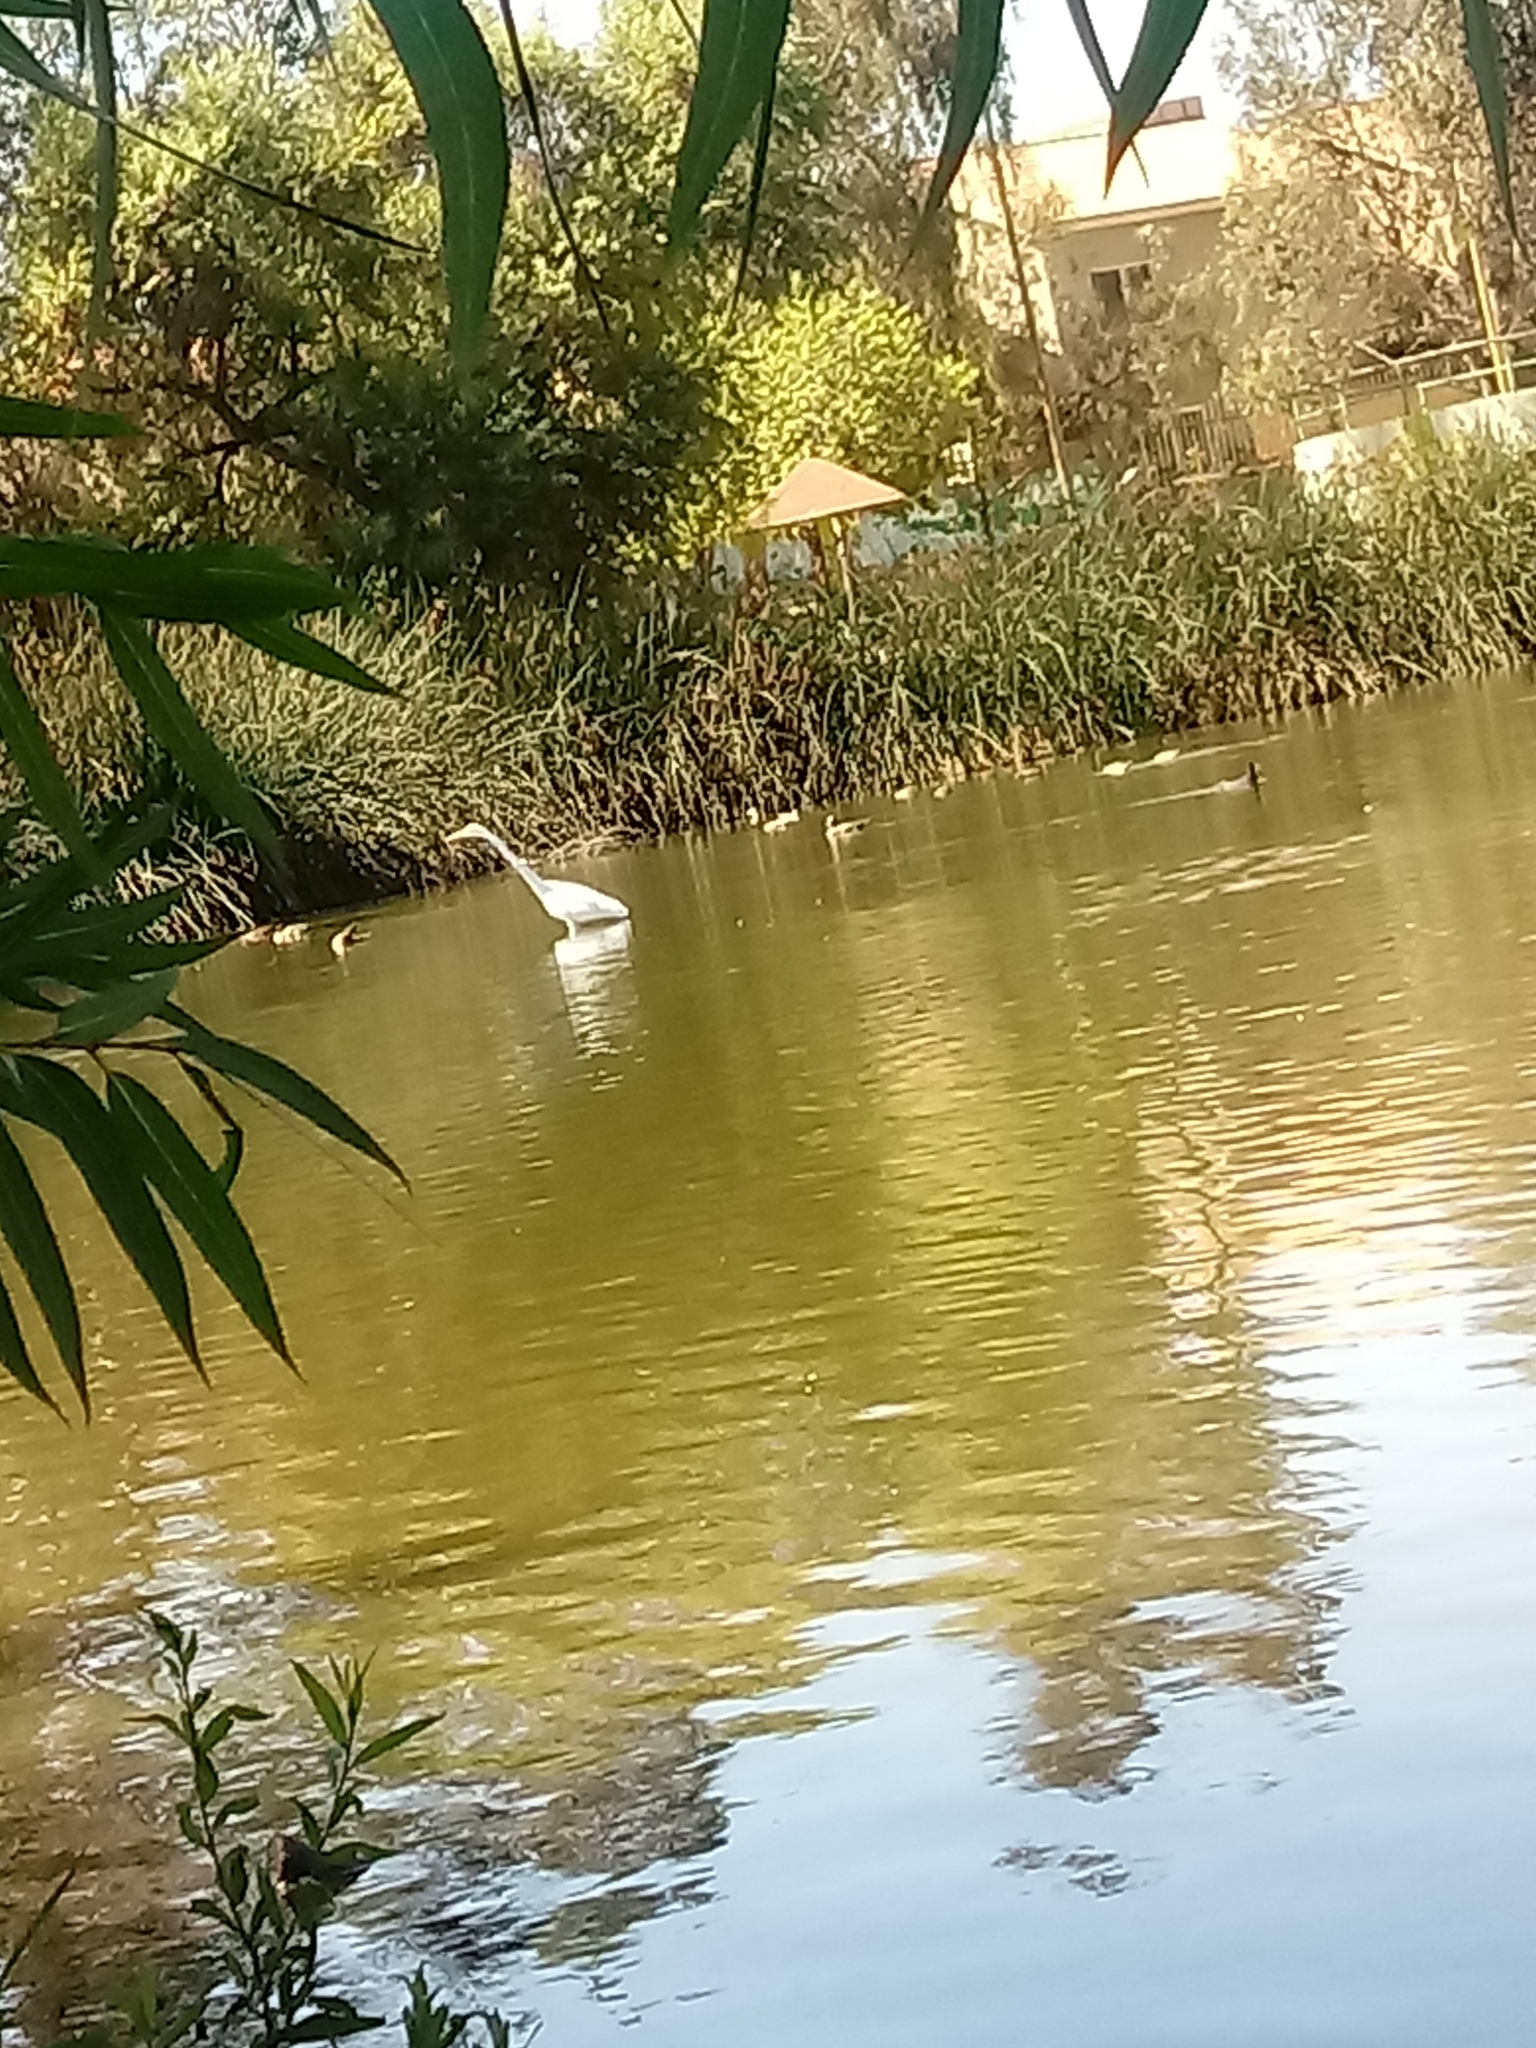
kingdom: Animalia
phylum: Chordata
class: Aves
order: Pelecaniformes
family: Ardeidae
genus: Ardea
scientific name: Ardea alba
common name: Great egret
